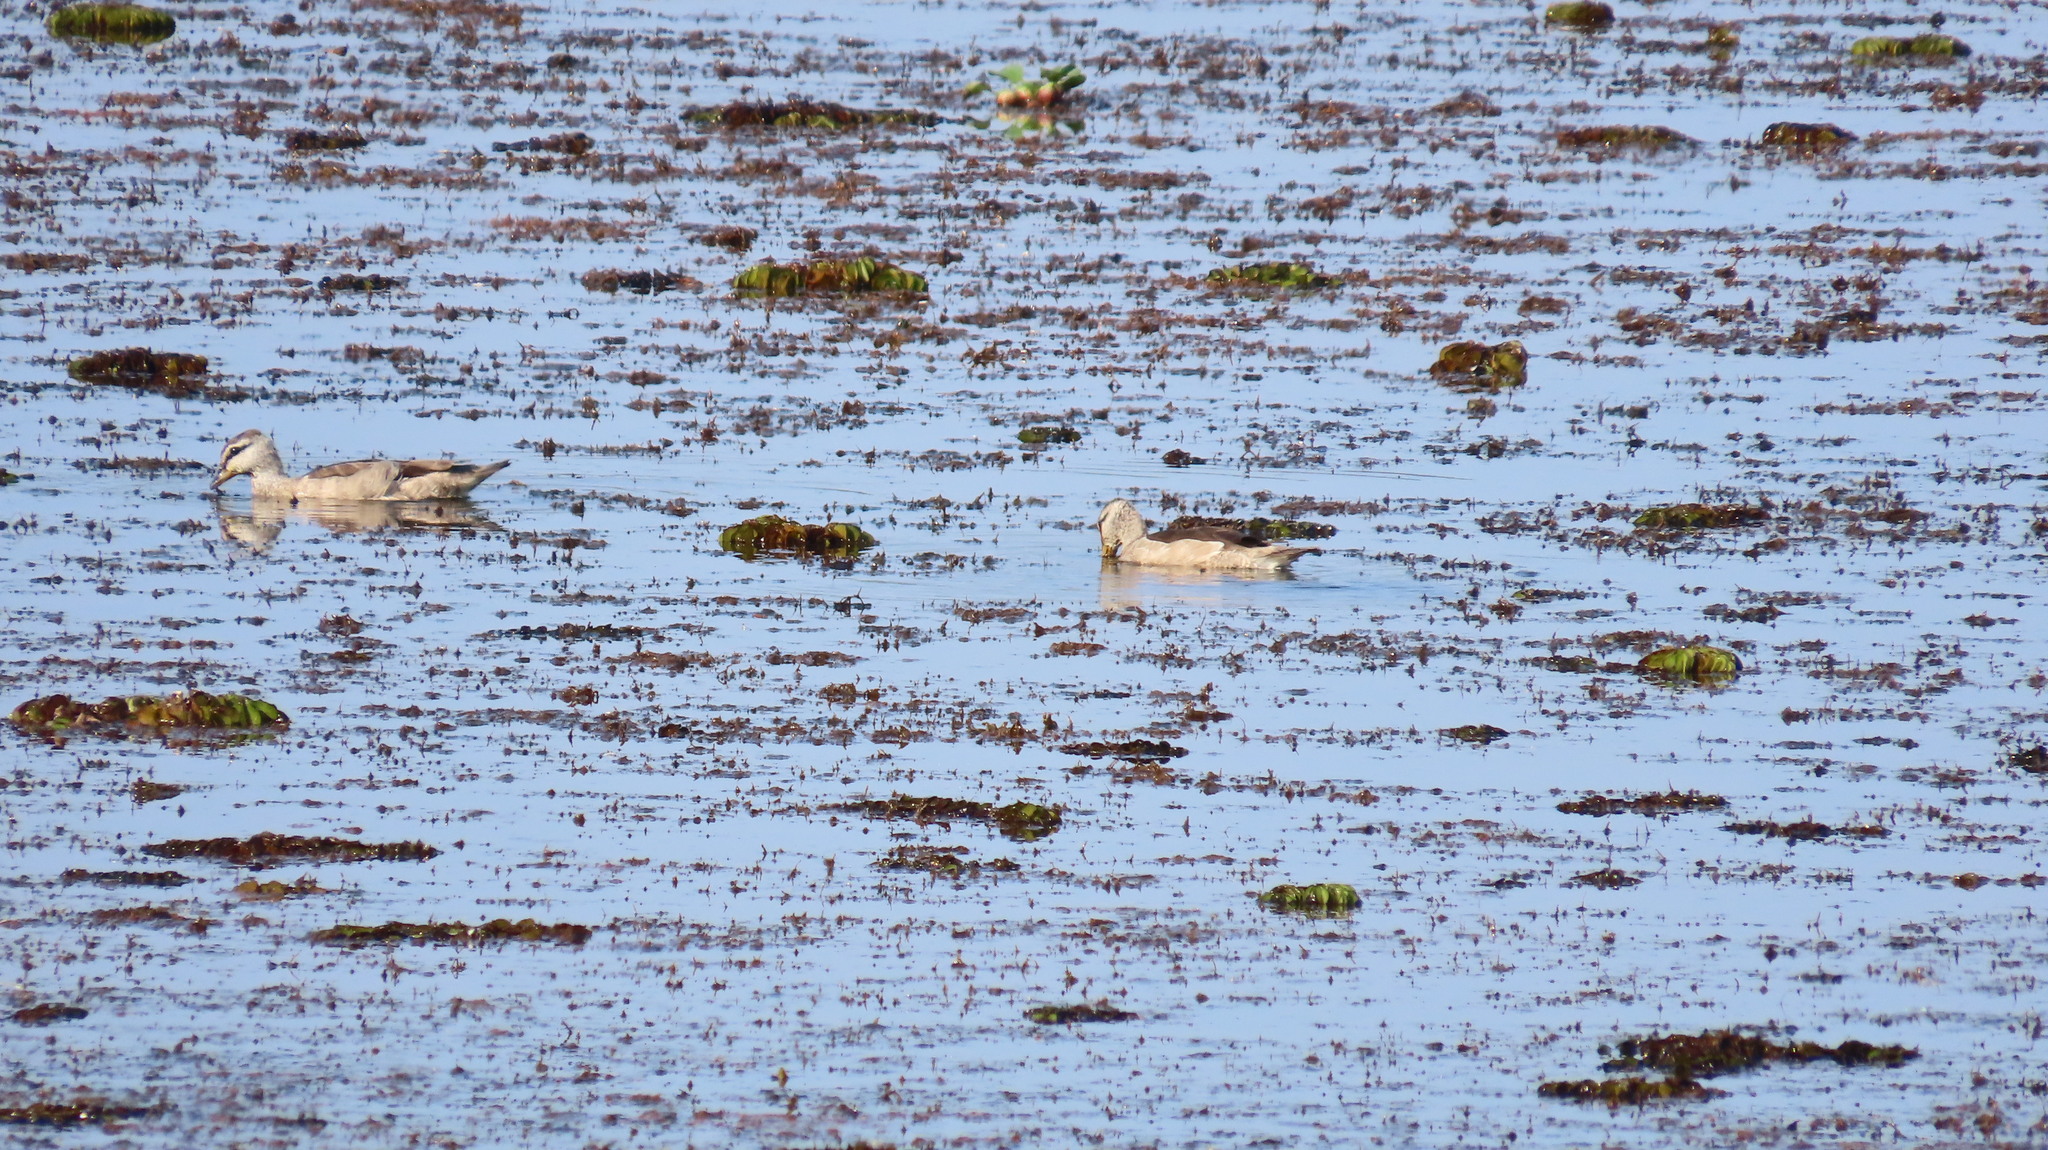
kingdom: Animalia
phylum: Chordata
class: Aves
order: Anseriformes
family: Anatidae
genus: Nettapus
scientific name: Nettapus coromandelianus
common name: Cotton pygmy-goose
